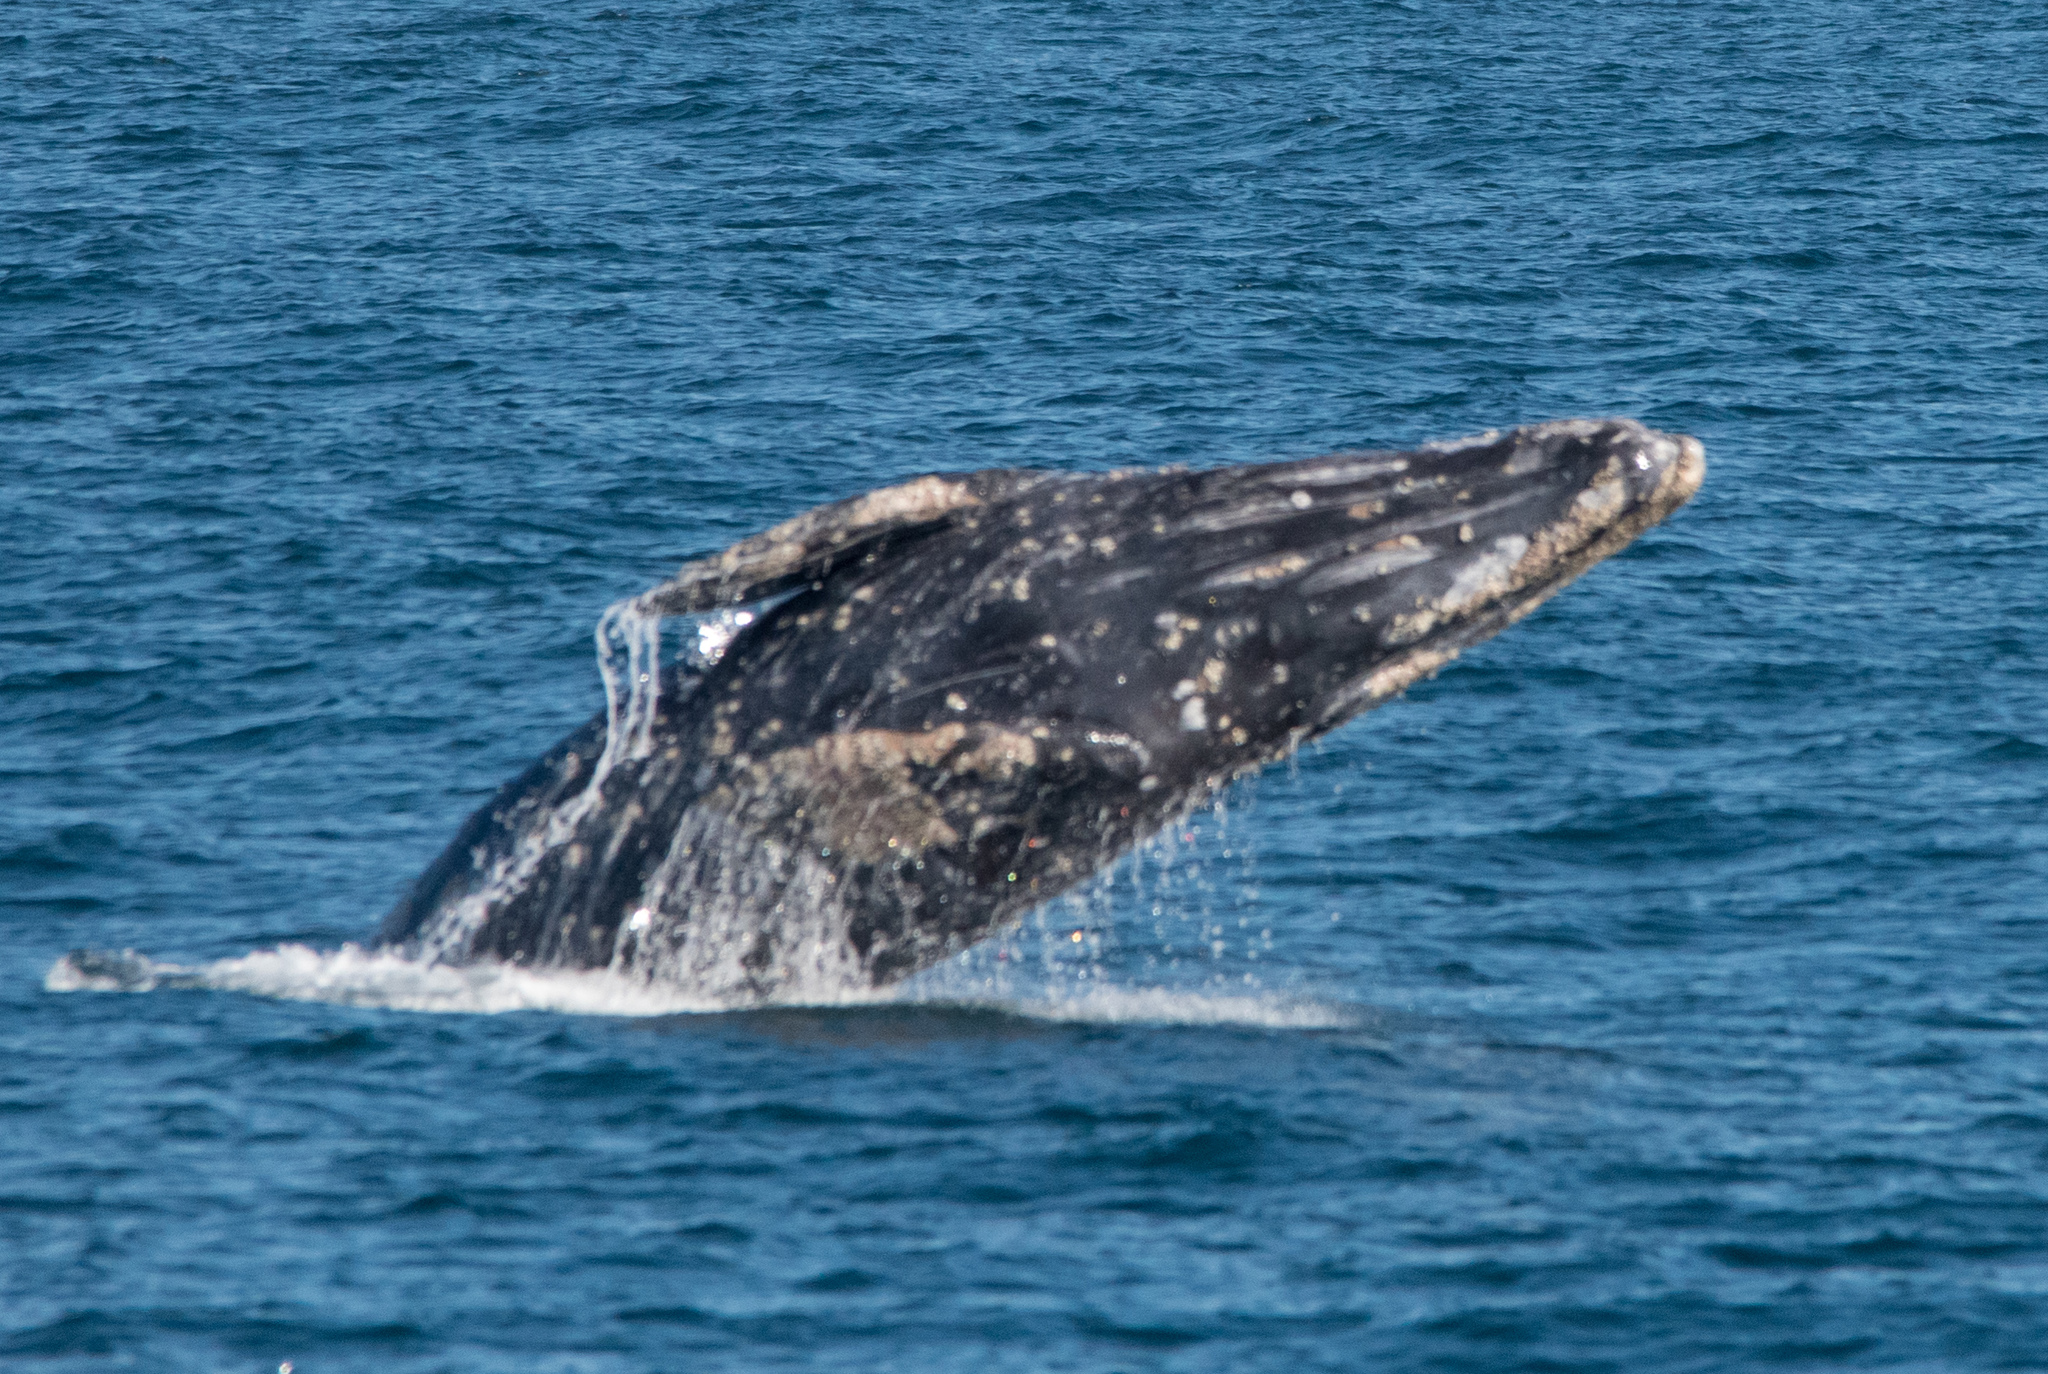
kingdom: Animalia
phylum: Chordata
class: Mammalia
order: Cetacea
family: Eschrichtiidae
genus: Eschrichtius
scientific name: Eschrichtius robustus
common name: Gray whale
